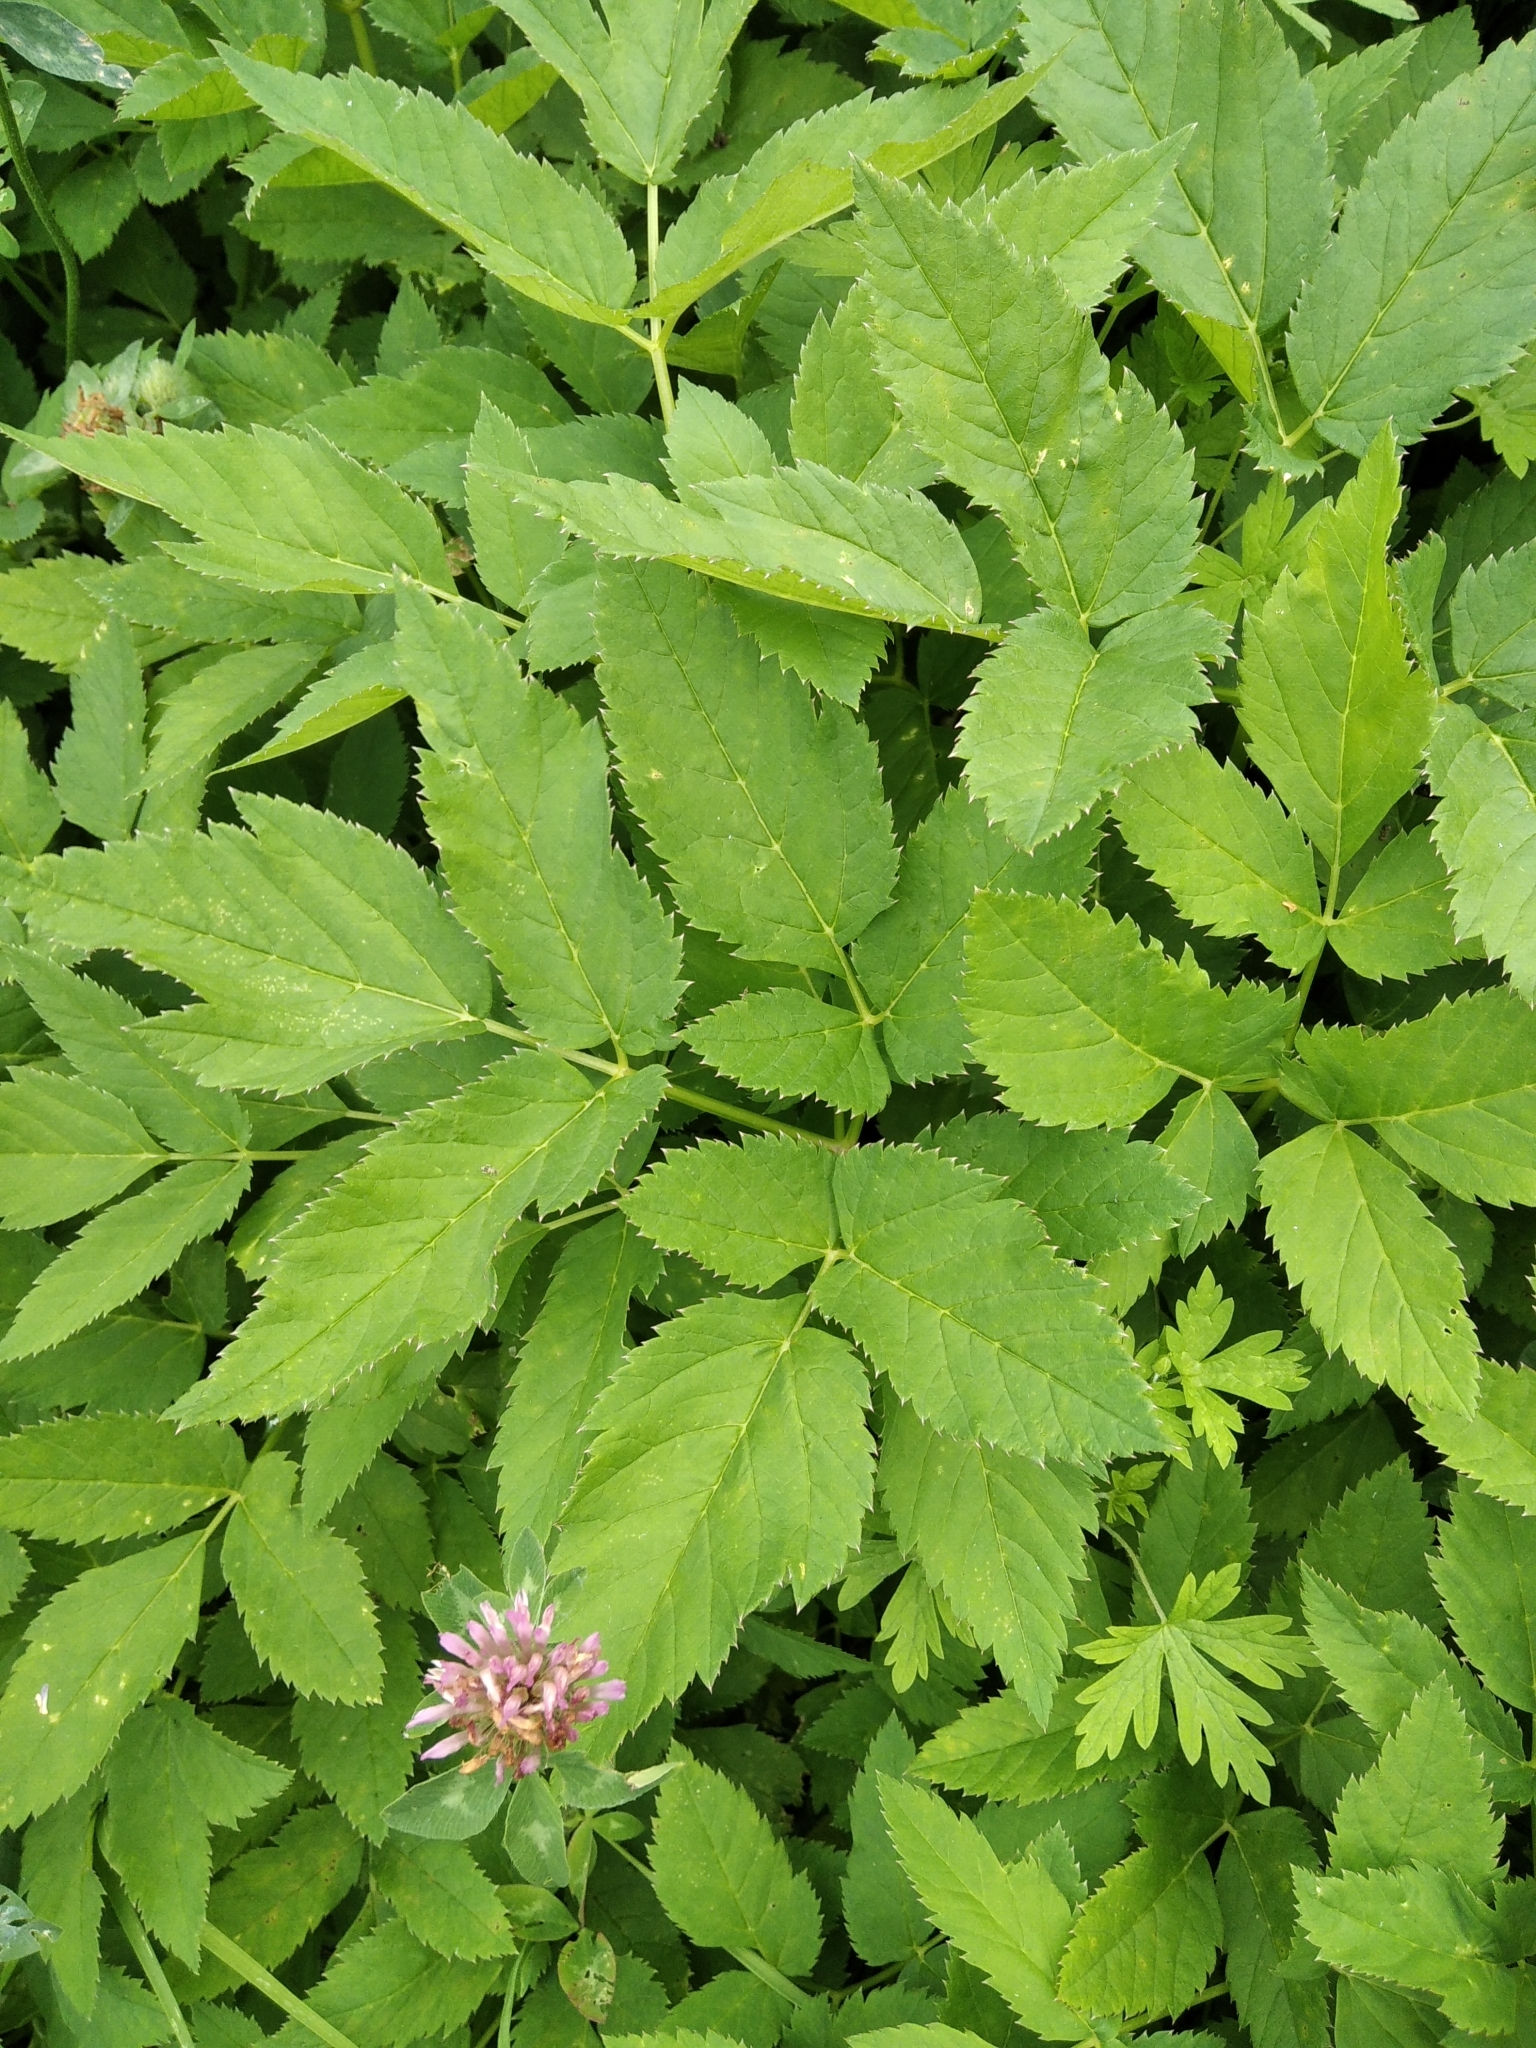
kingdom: Plantae
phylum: Tracheophyta
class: Magnoliopsida
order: Apiales
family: Apiaceae
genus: Aegopodium
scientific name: Aegopodium podagraria
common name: Ground-elder
